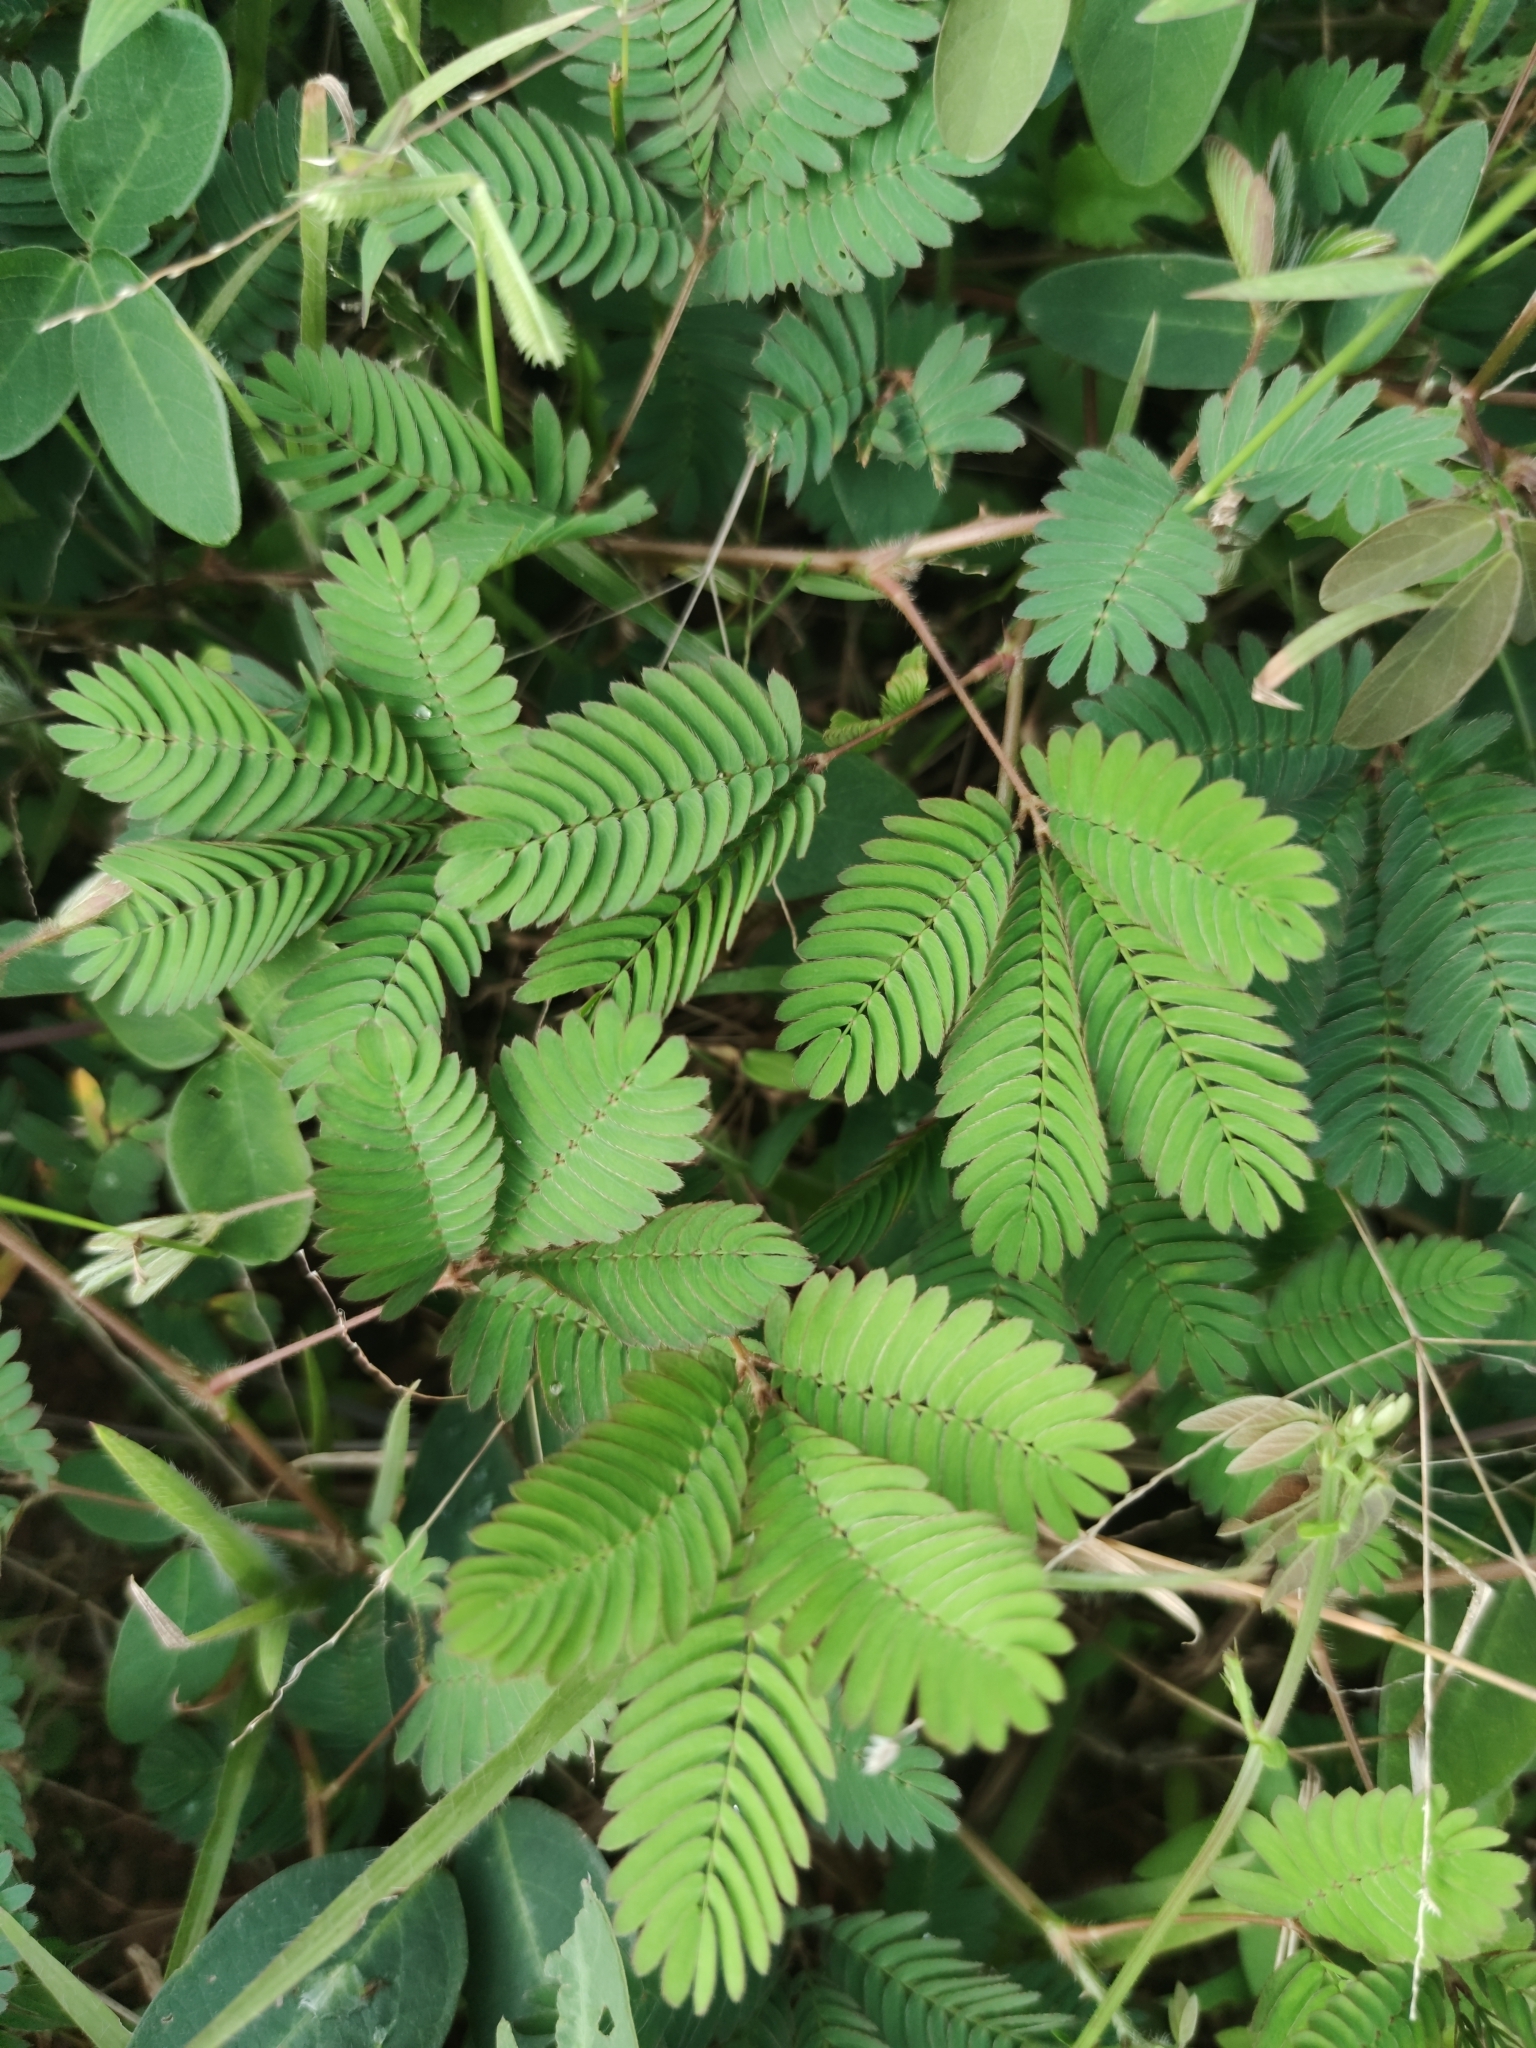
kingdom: Plantae
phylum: Tracheophyta
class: Magnoliopsida
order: Fabales
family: Fabaceae
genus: Mimosa
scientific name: Mimosa pudica
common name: Sensitive plant
